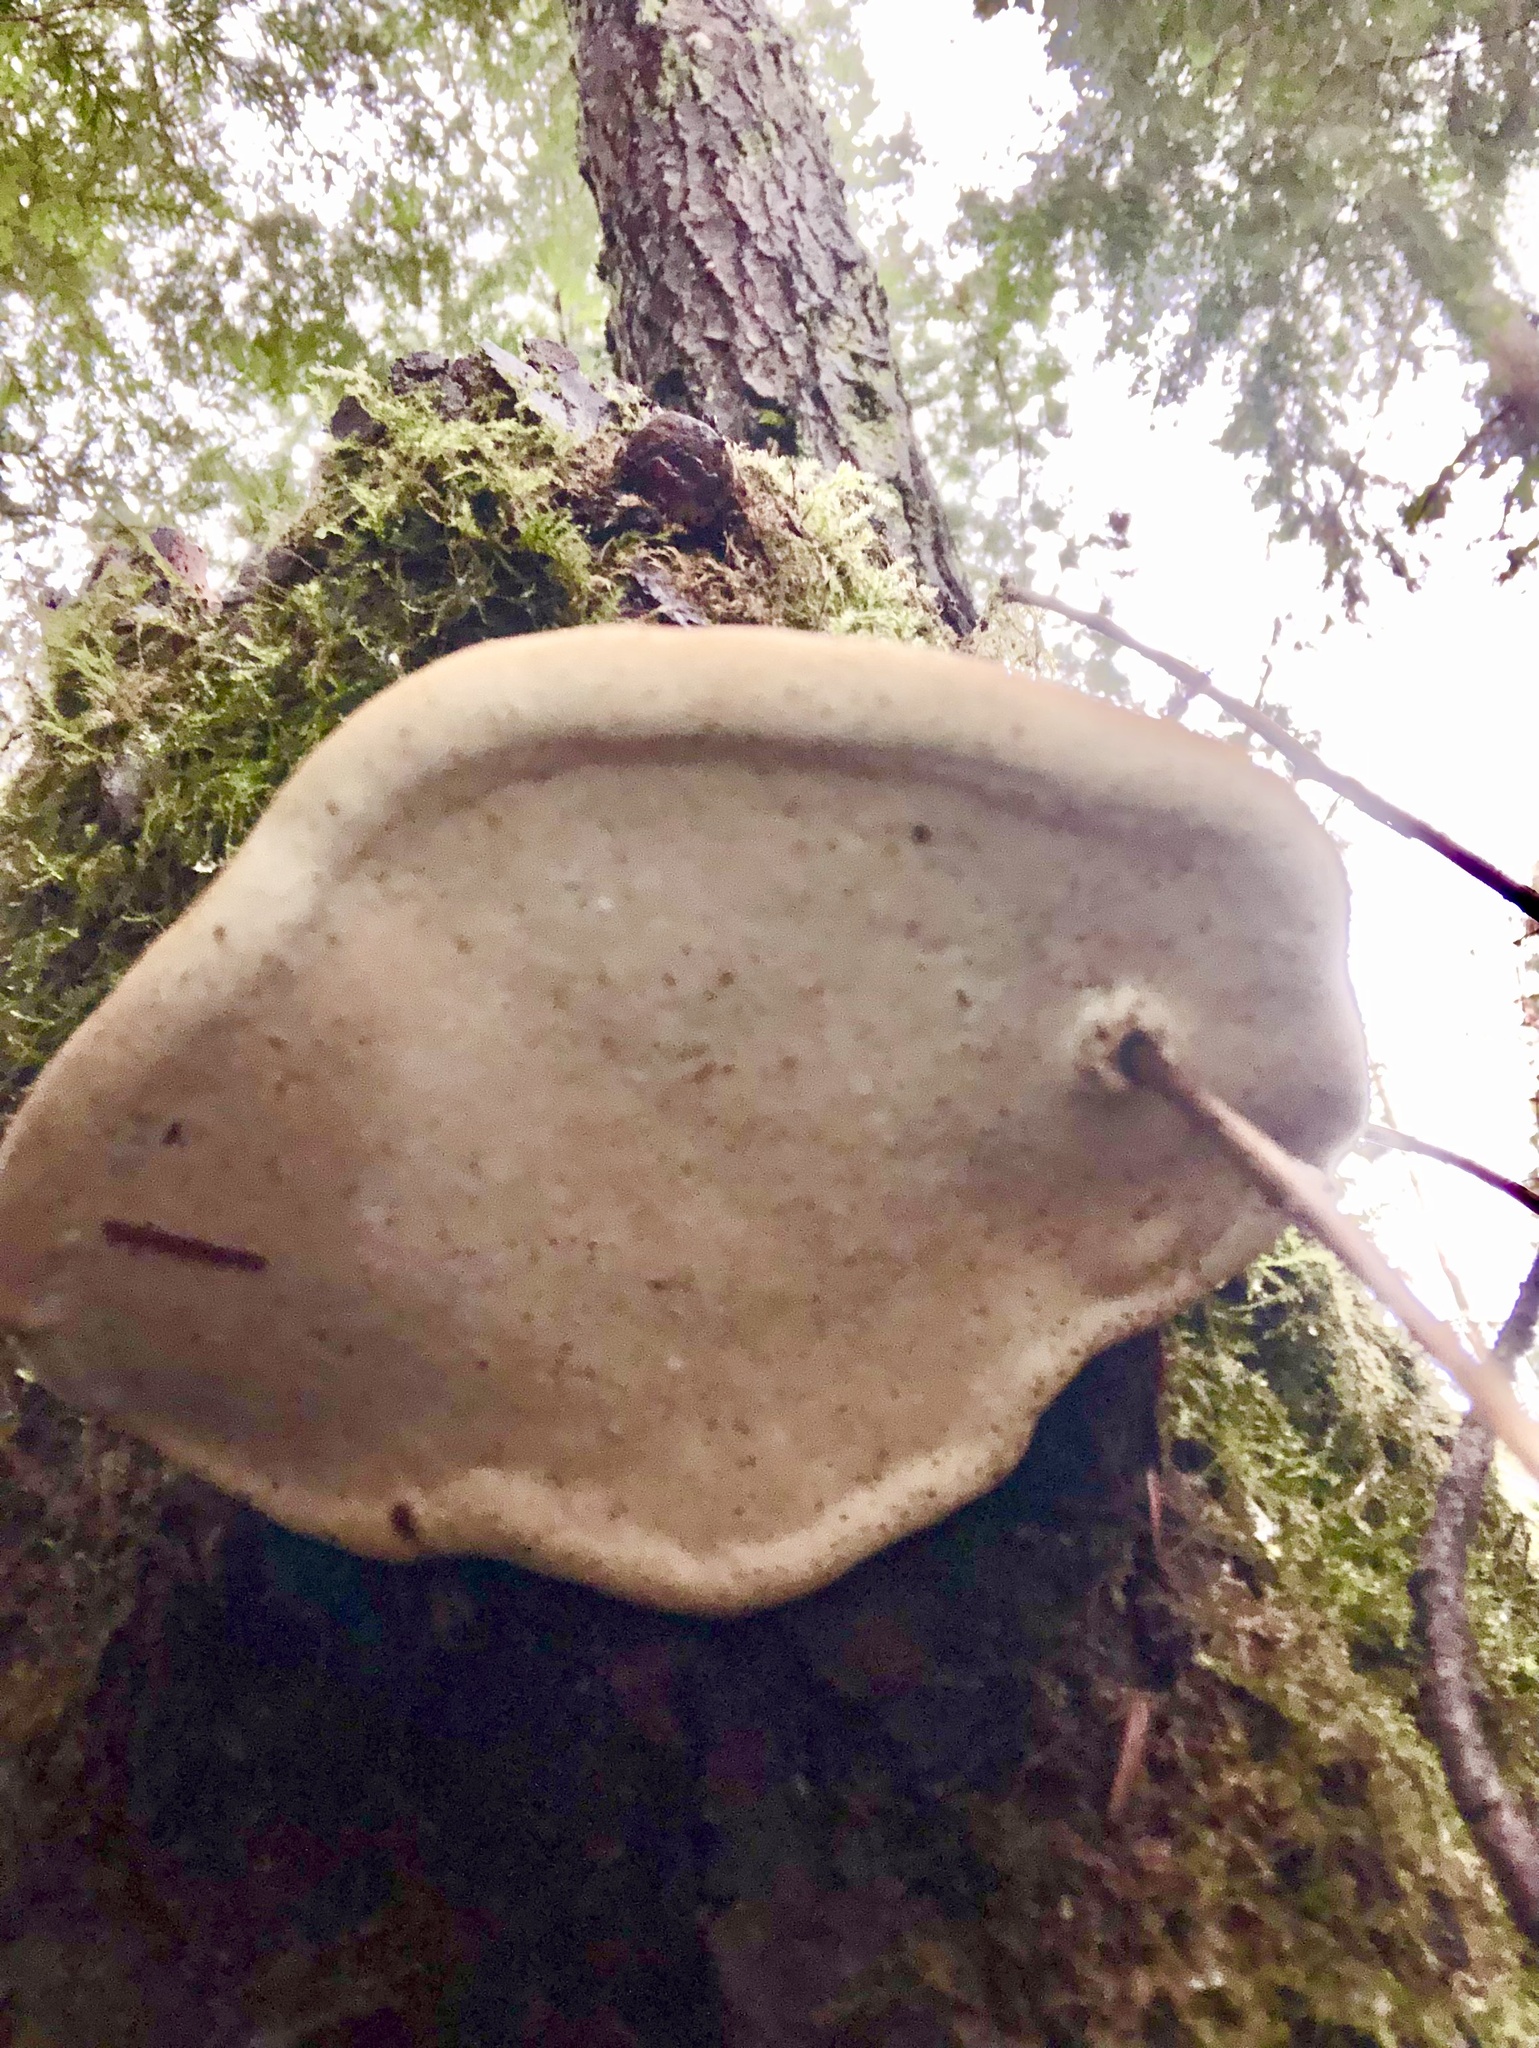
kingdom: Fungi
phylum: Basidiomycota
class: Agaricomycetes
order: Polyporales
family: Fomitopsidaceae
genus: Fomitopsis
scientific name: Fomitopsis mounceae
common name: Northern red belt
